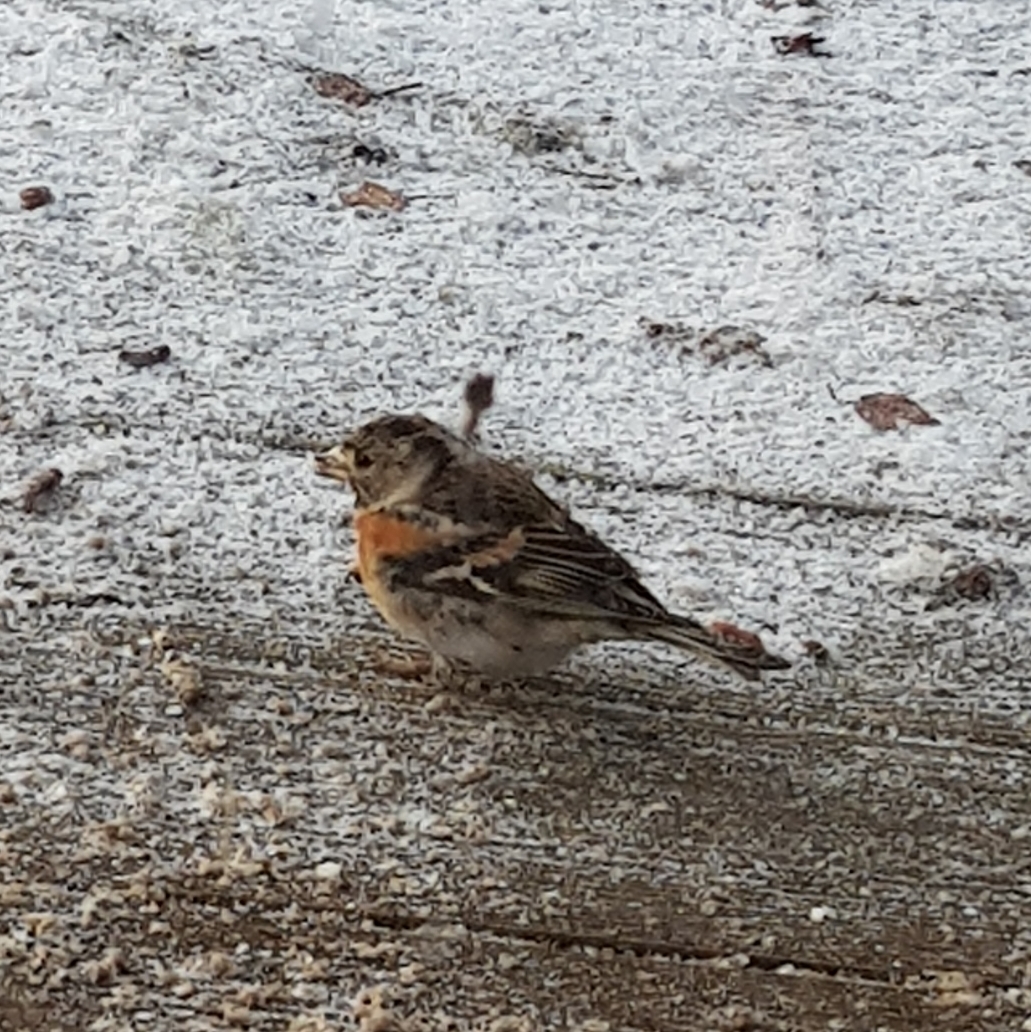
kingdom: Animalia
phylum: Chordata
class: Aves
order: Passeriformes
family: Fringillidae
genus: Fringilla
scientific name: Fringilla montifringilla
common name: Brambling
